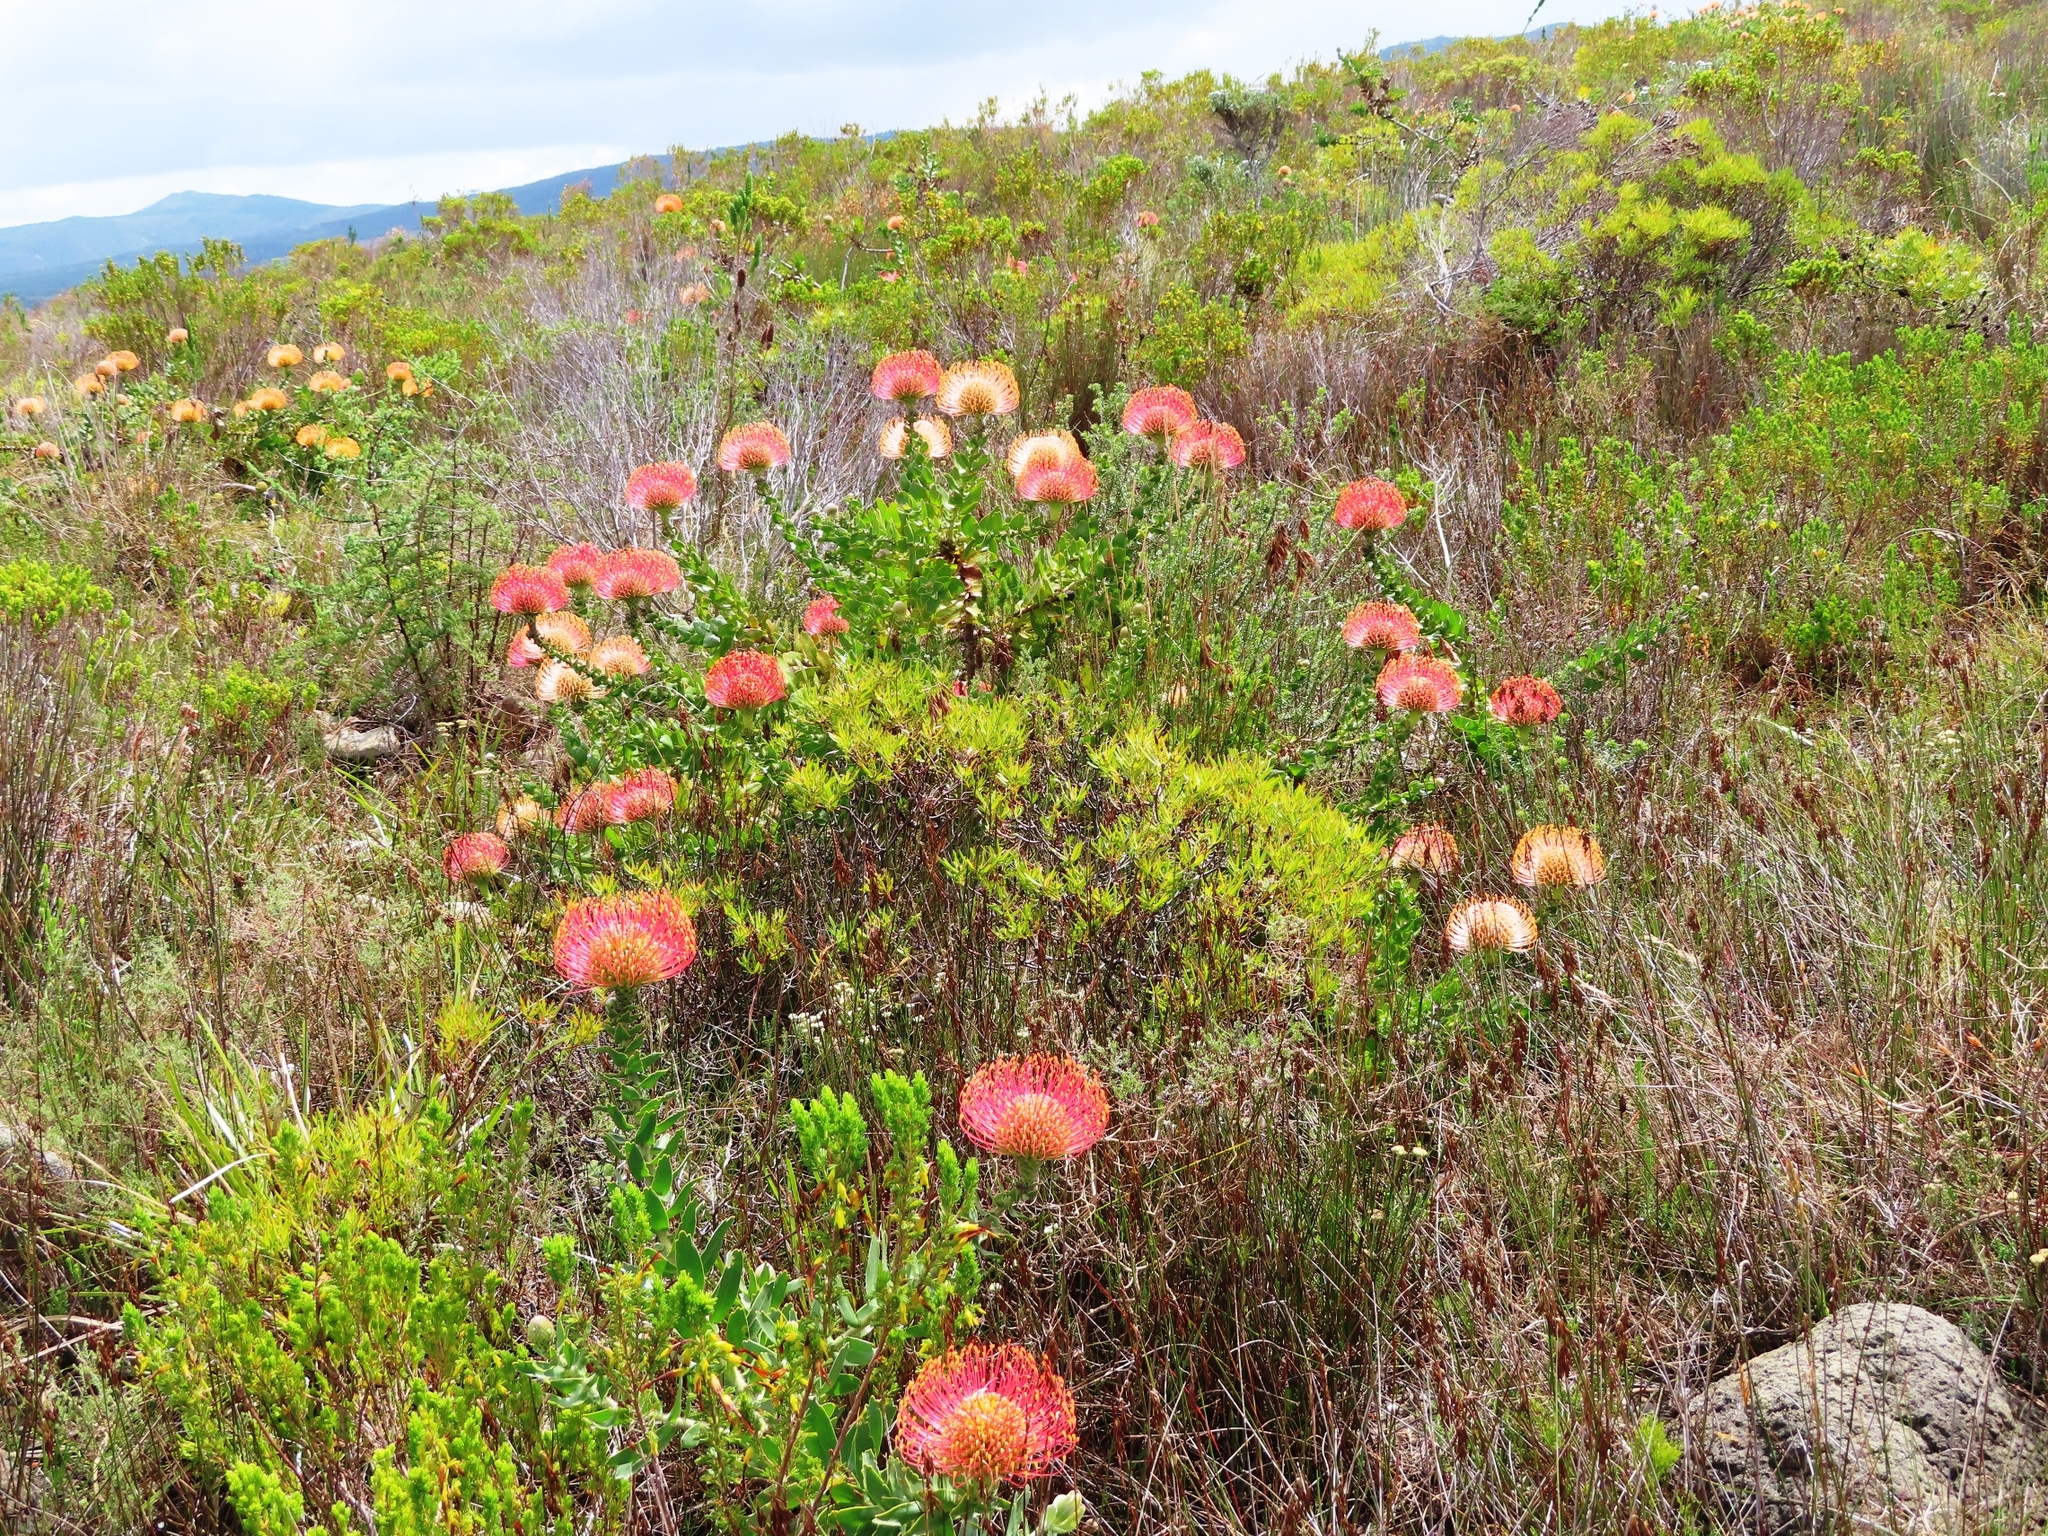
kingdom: Plantae
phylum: Tracheophyta
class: Magnoliopsida
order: Proteales
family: Proteaceae
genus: Leucospermum
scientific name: Leucospermum cordifolium
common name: Red pincushion-protea
